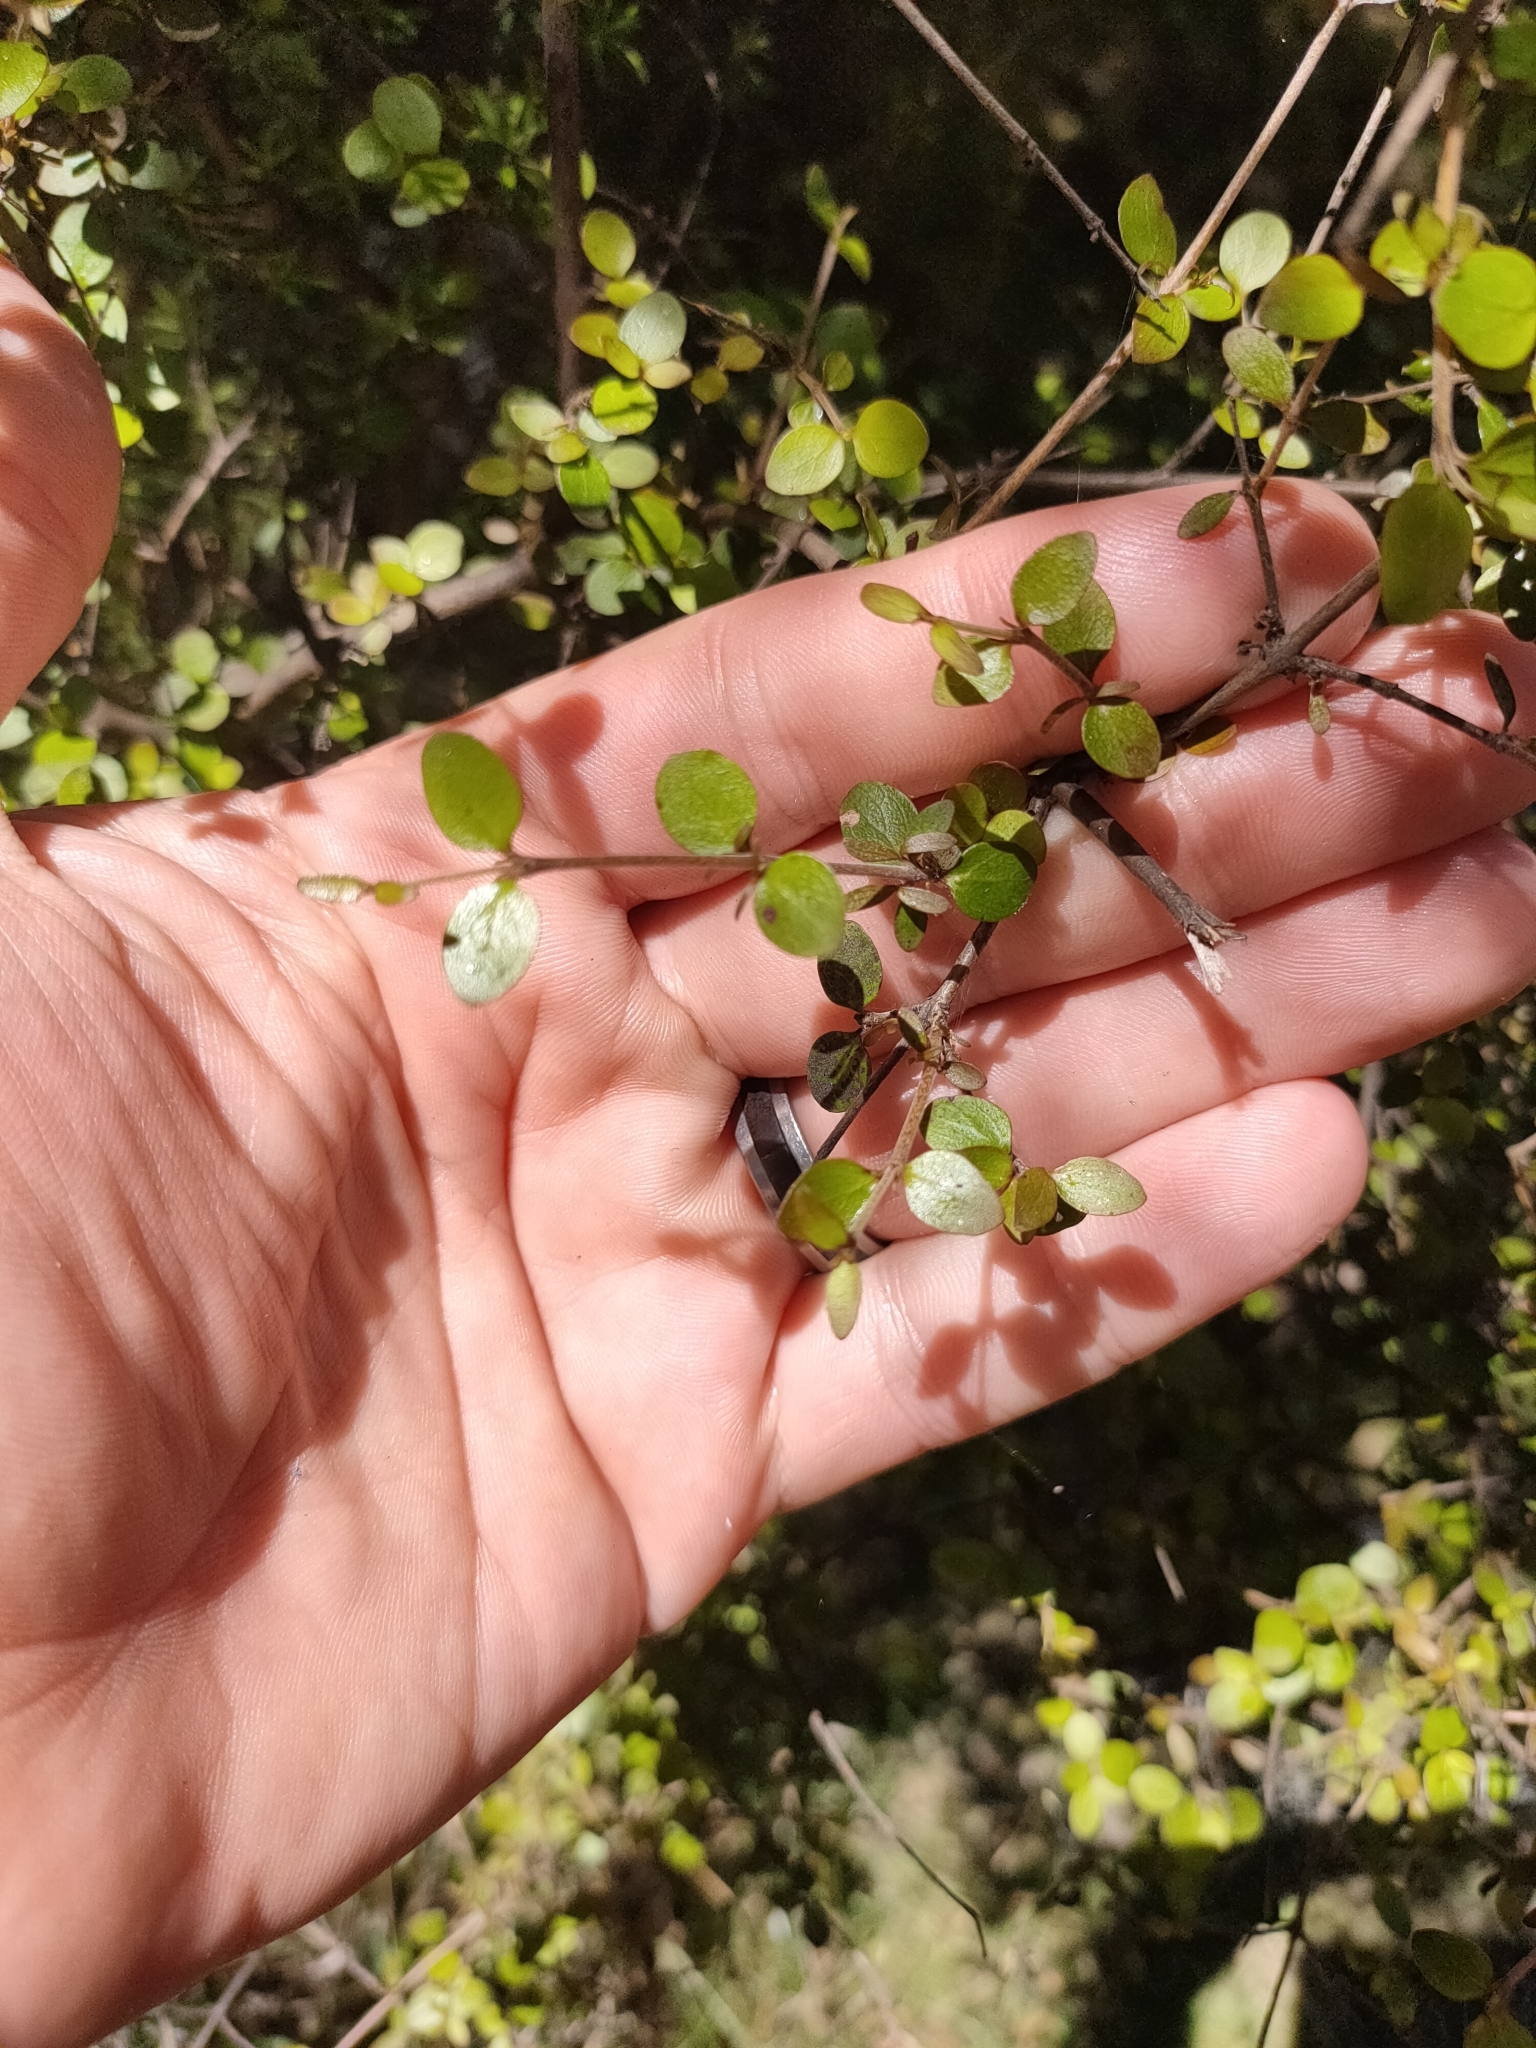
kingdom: Plantae
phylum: Tracheophyta
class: Magnoliopsida
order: Gentianales
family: Rubiaceae
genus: Coprosma
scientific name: Coprosma rhamnoides
